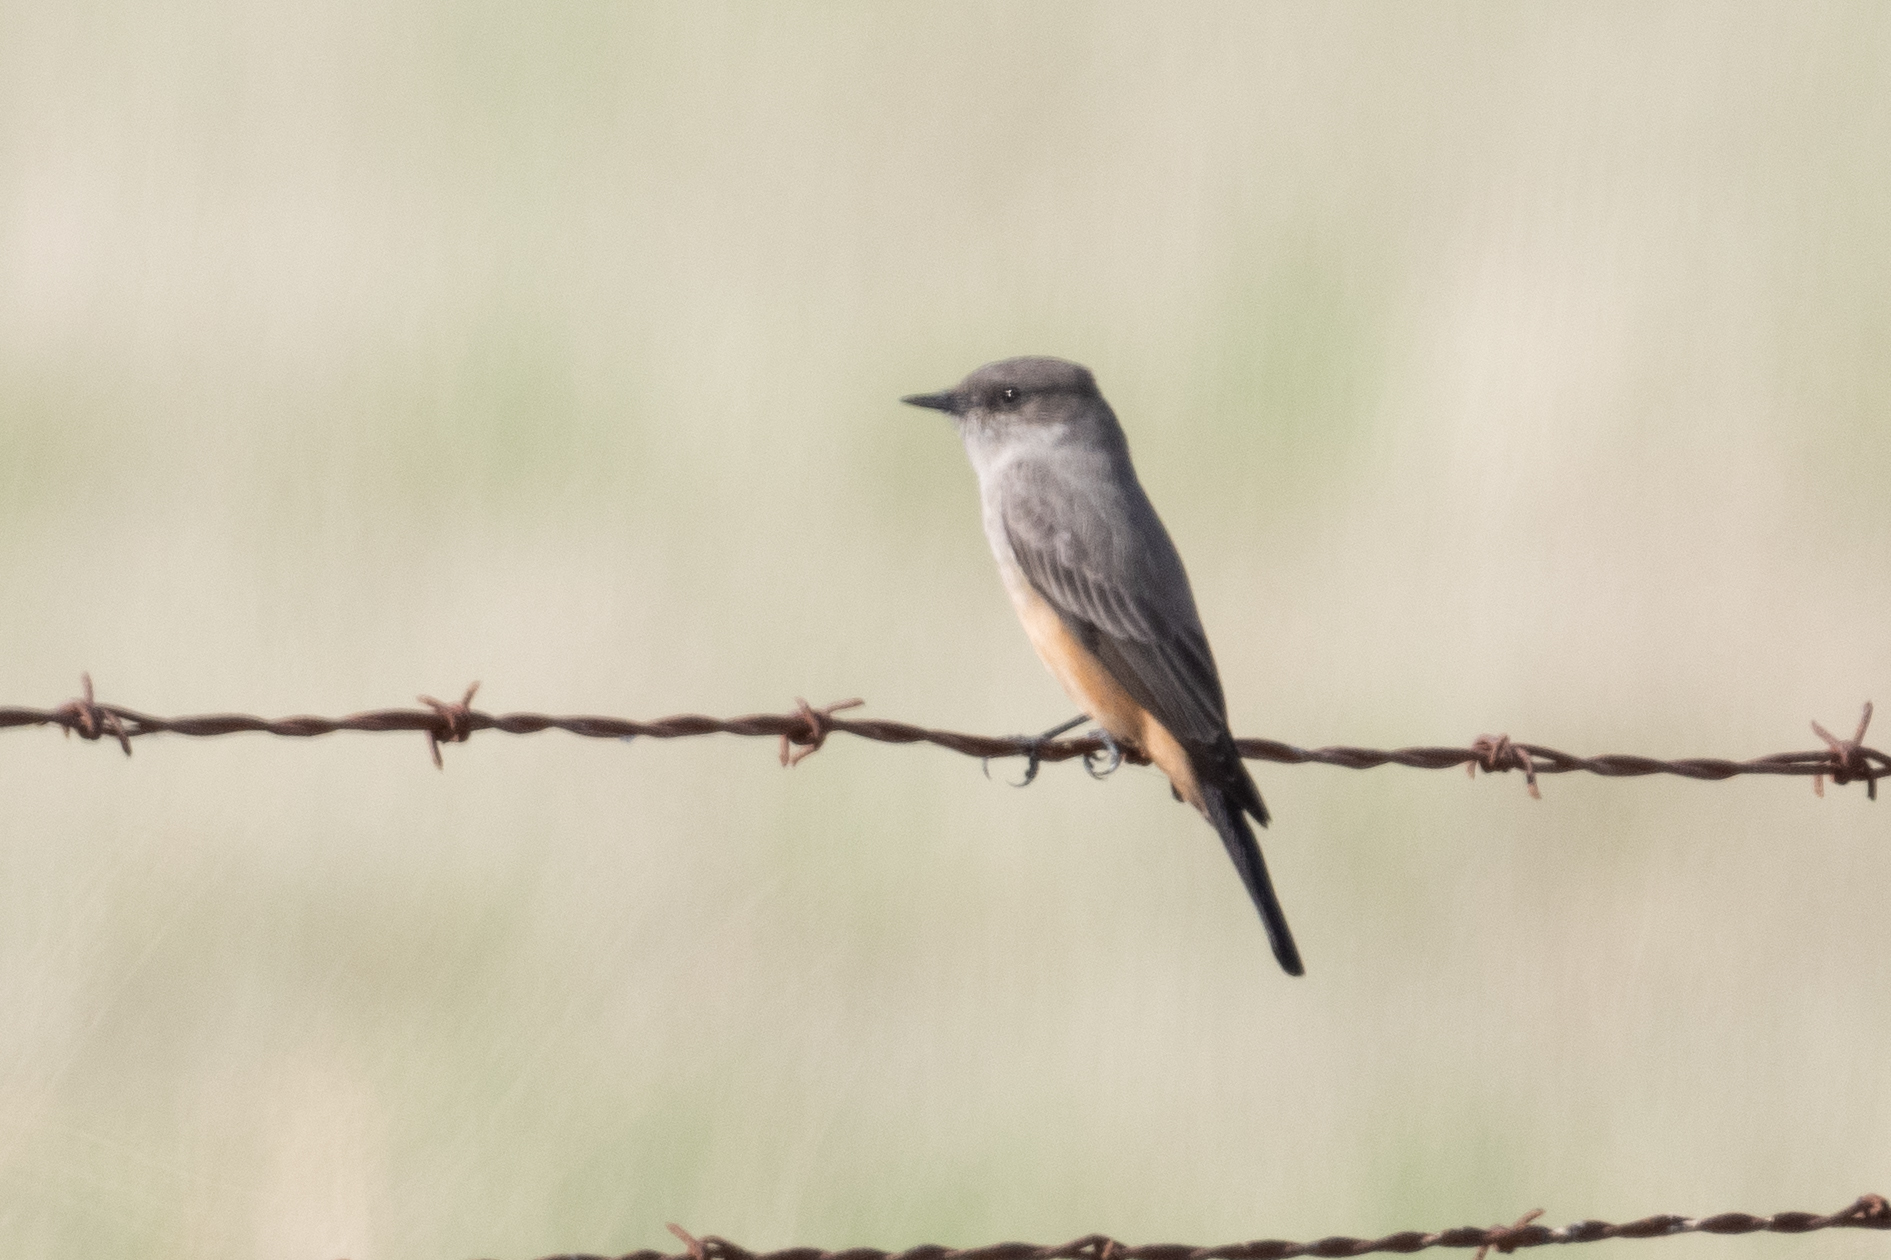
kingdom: Animalia
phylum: Chordata
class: Aves
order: Passeriformes
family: Tyrannidae
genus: Sayornis
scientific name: Sayornis saya
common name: Say's phoebe
